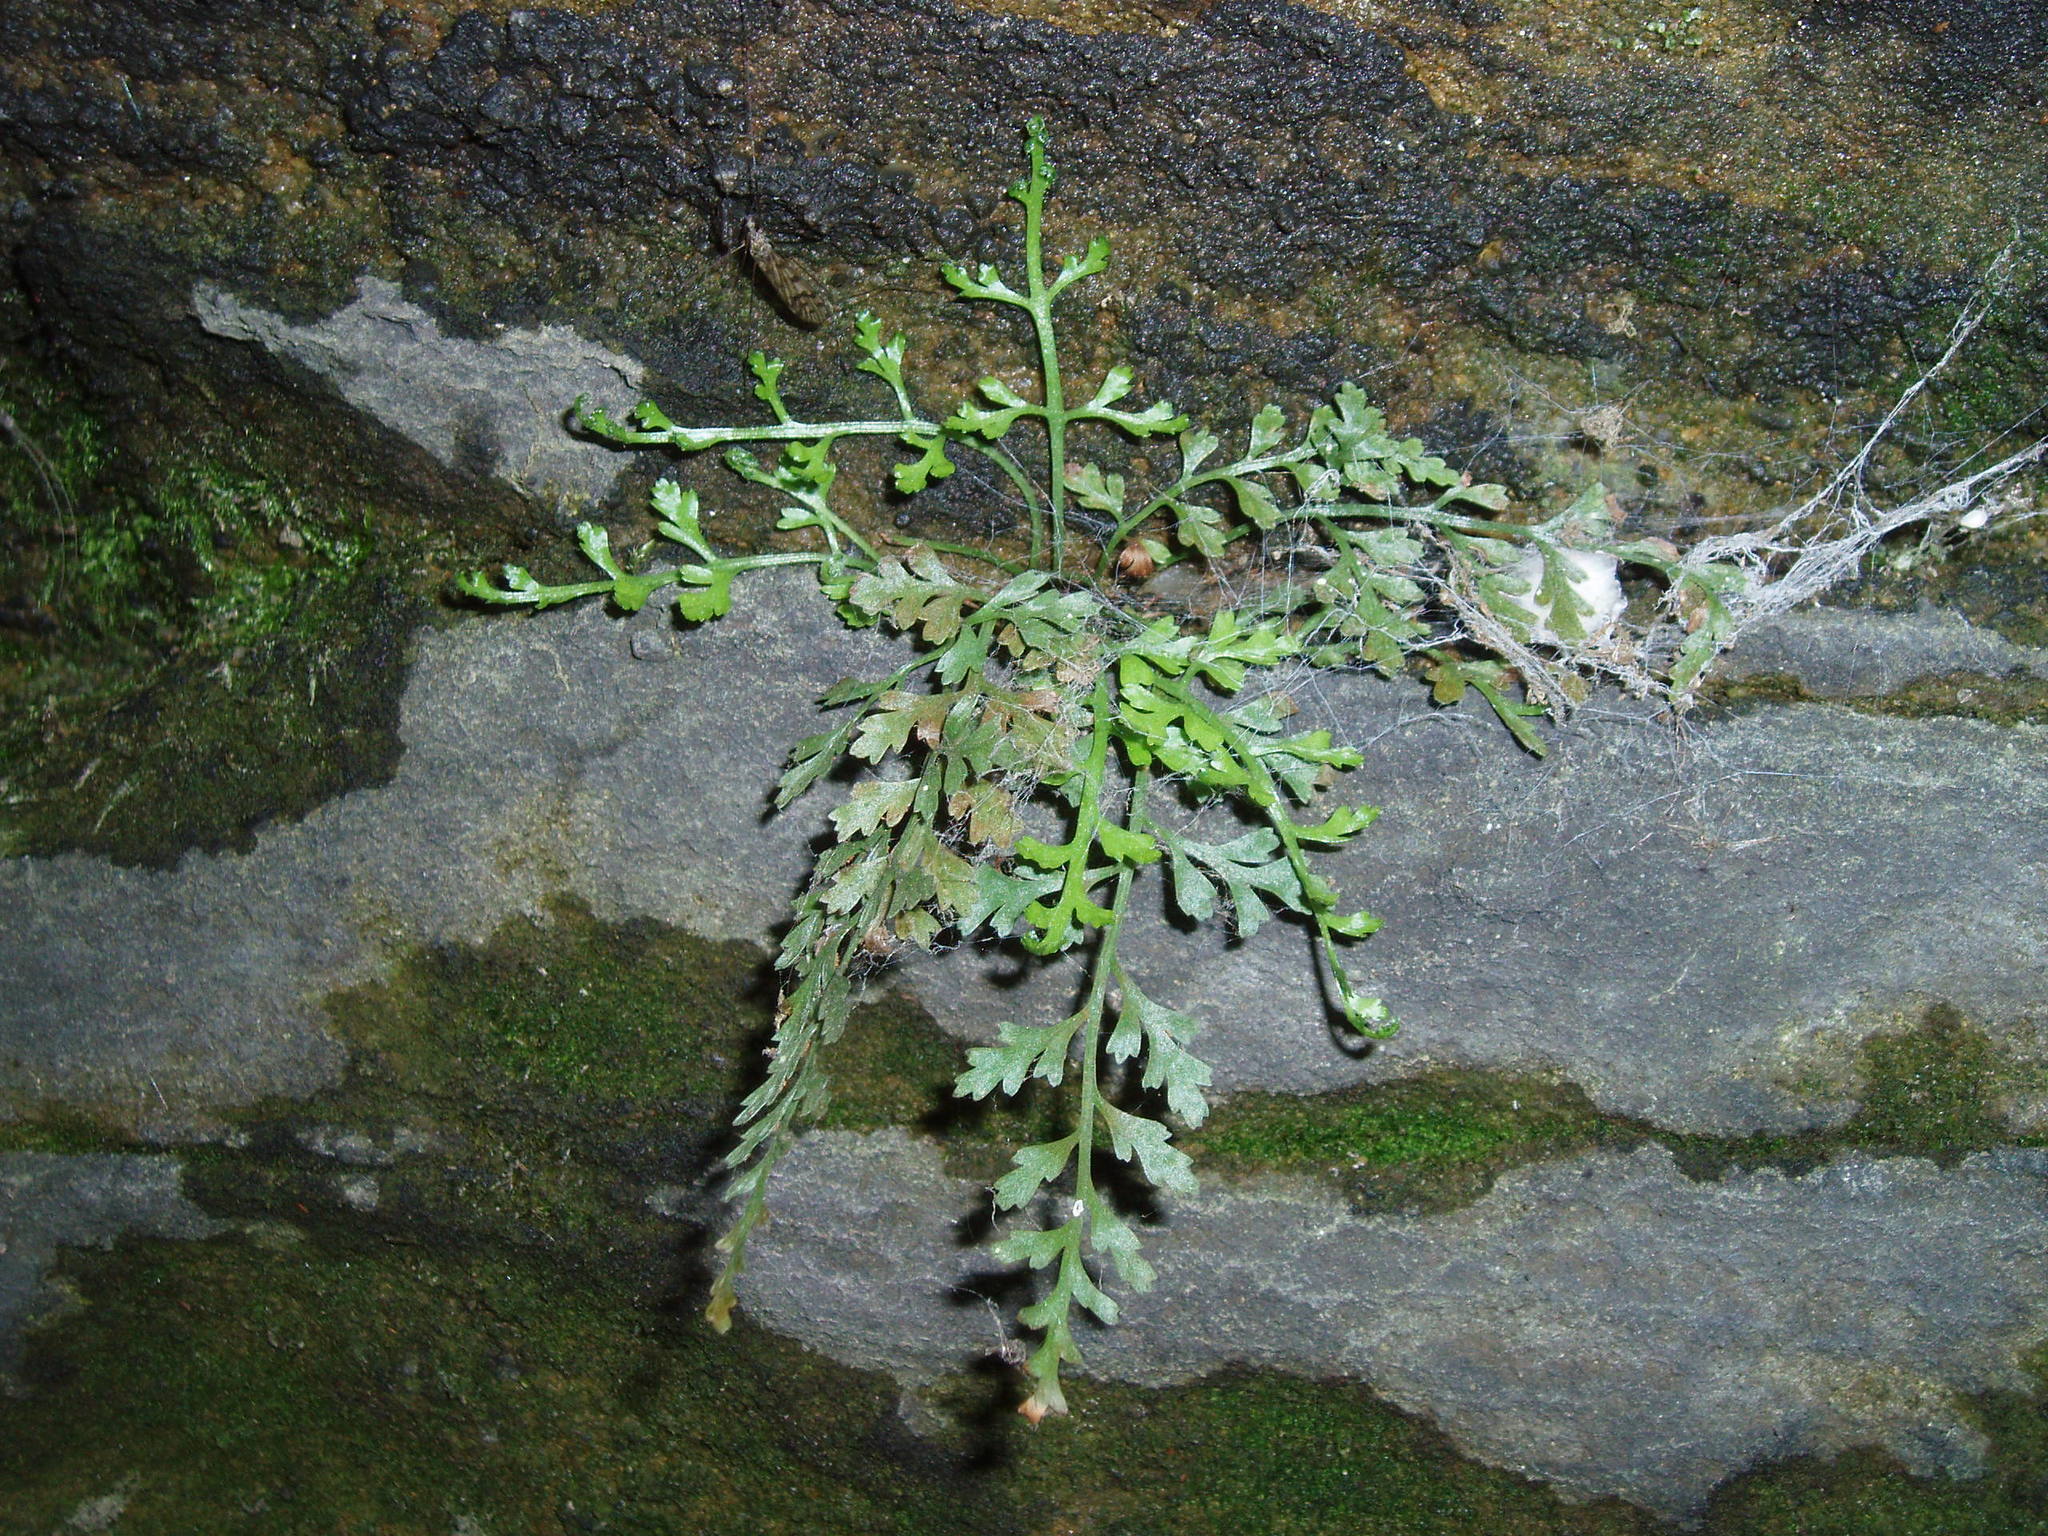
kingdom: Plantae
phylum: Tracheophyta
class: Polypodiopsida
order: Polypodiales
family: Aspleniaceae
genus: Asplenium
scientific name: Asplenium montanum
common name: Mountain spleenwort
